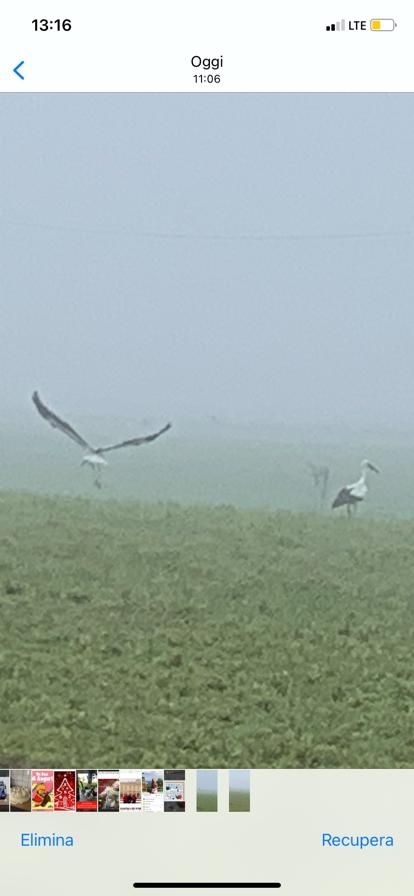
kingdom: Animalia
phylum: Chordata
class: Aves
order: Ciconiiformes
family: Ciconiidae
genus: Ciconia
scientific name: Ciconia ciconia
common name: White stork
